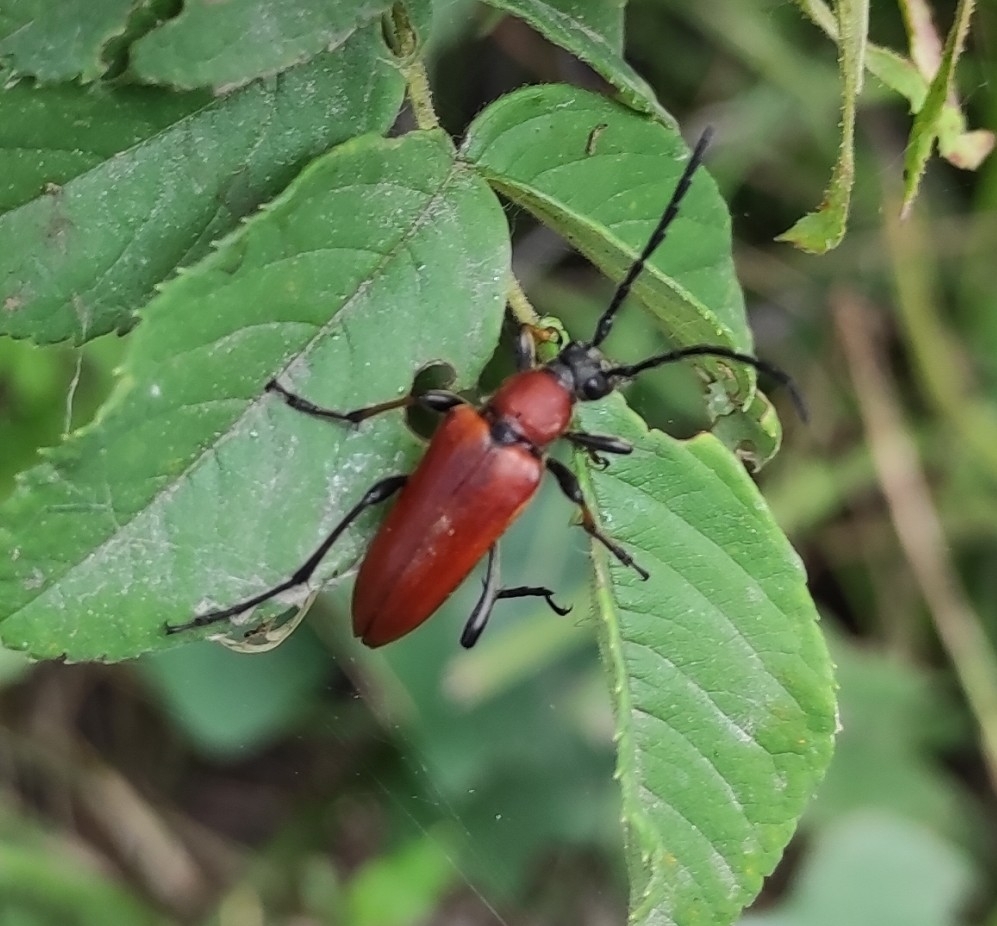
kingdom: Animalia
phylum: Arthropoda
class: Insecta
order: Coleoptera
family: Cerambycidae
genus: Stictoleptura
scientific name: Stictoleptura dichroa
